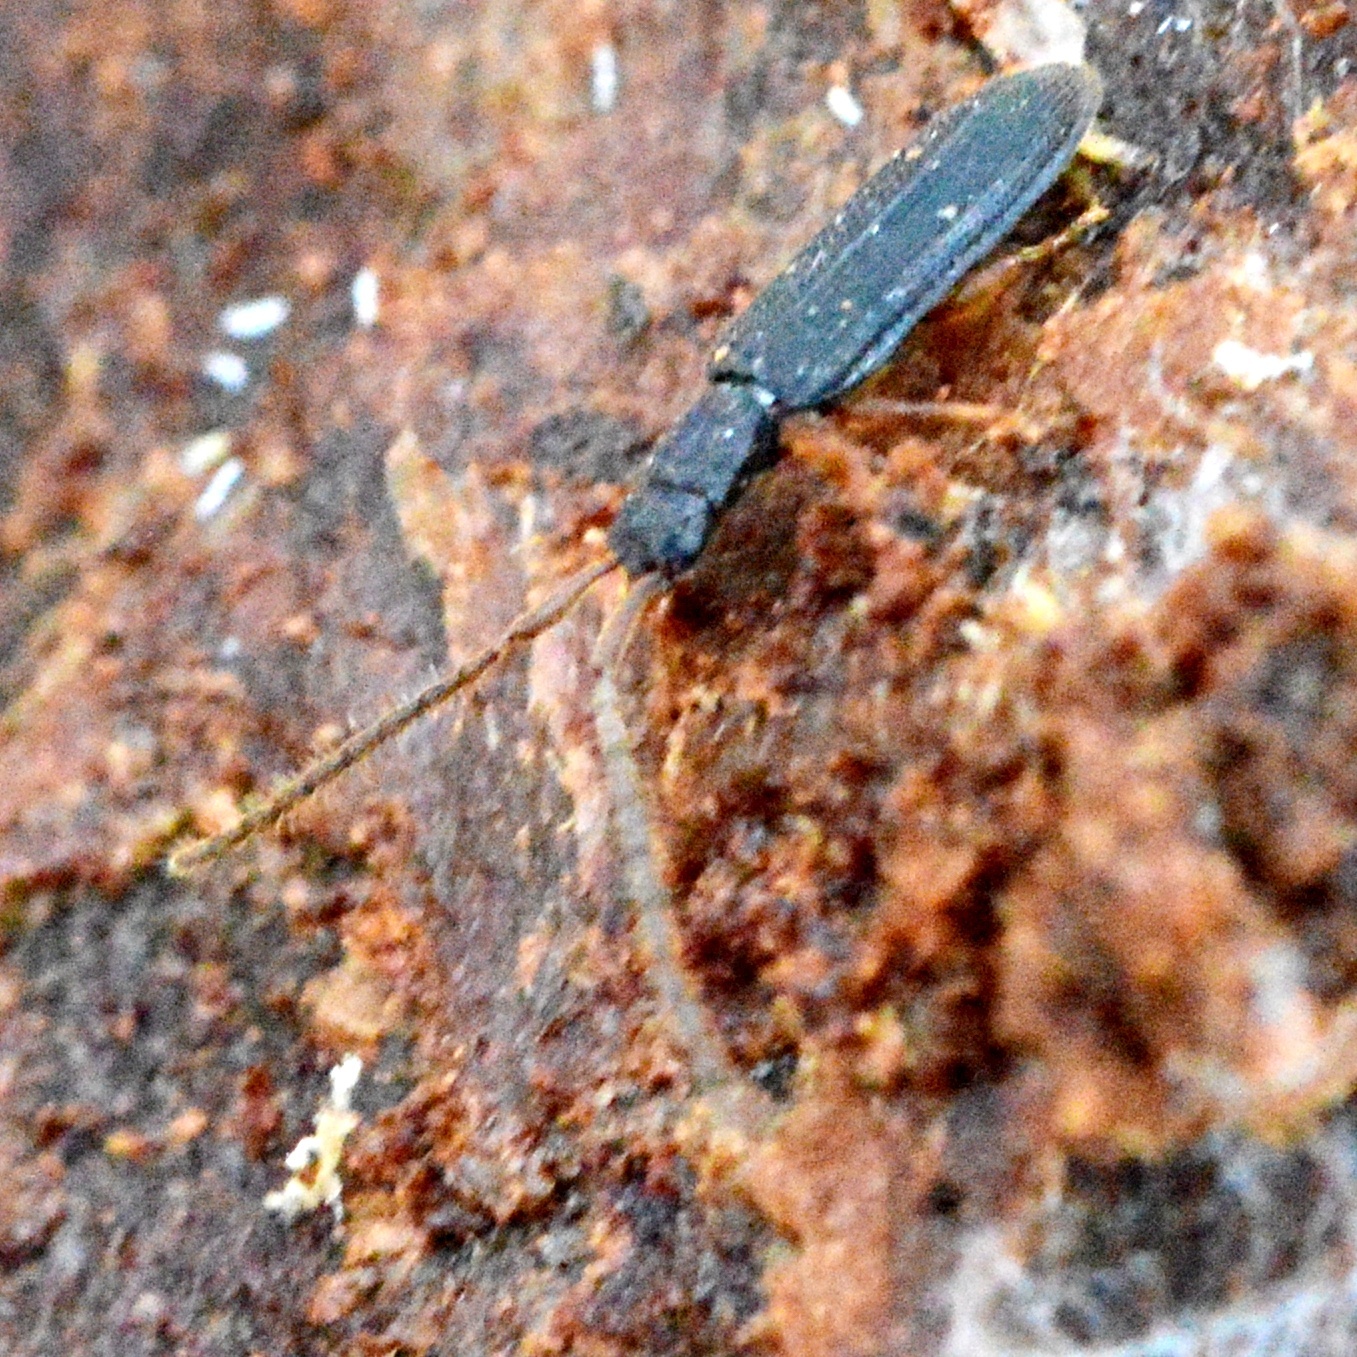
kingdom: Animalia
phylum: Arthropoda
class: Insecta
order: Coleoptera
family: Silvanidae
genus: Uleiota
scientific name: Uleiota planatus
